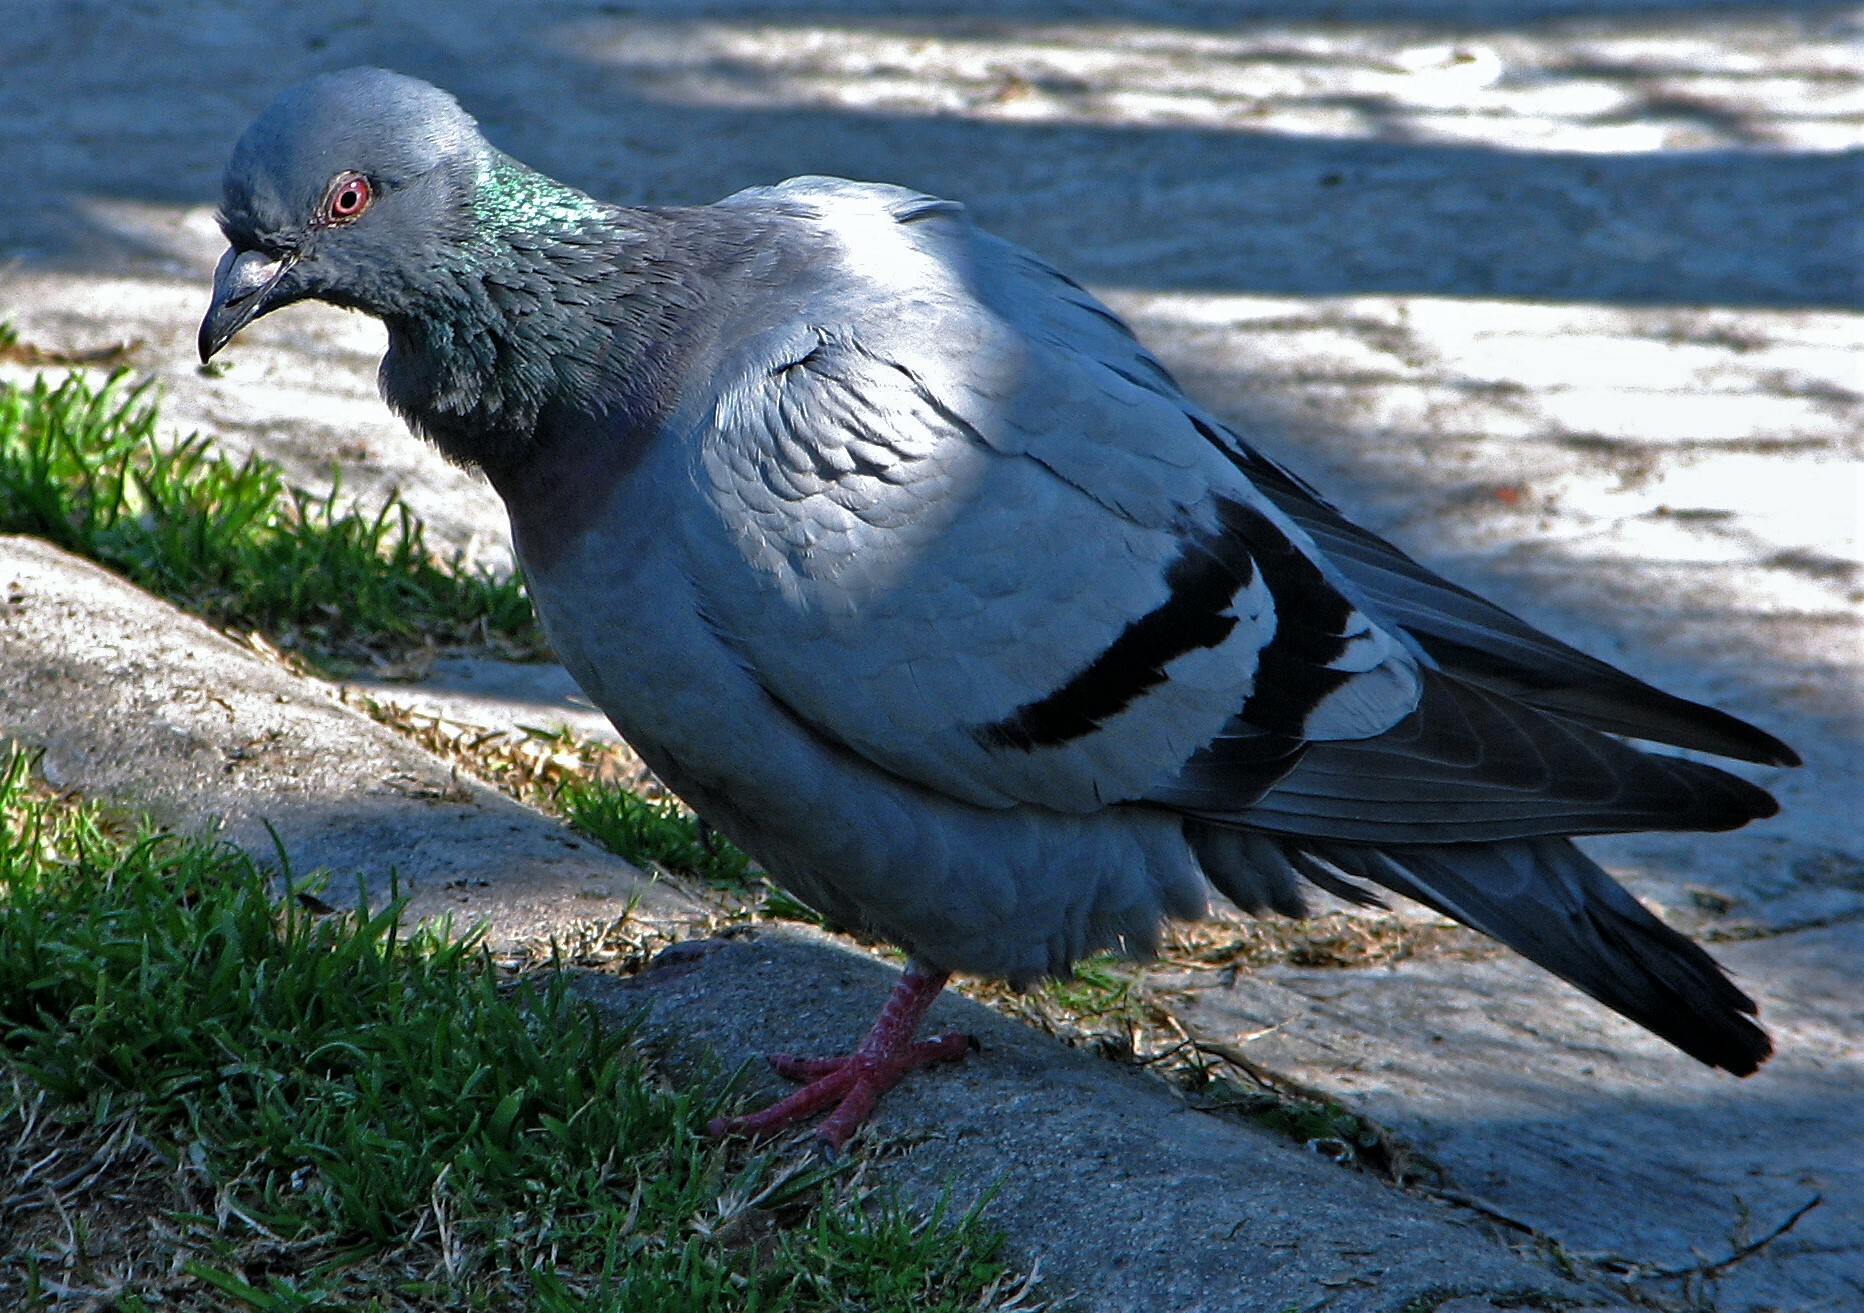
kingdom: Animalia
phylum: Chordata
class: Aves
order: Columbiformes
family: Columbidae
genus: Columba
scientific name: Columba livia
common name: Rock pigeon
